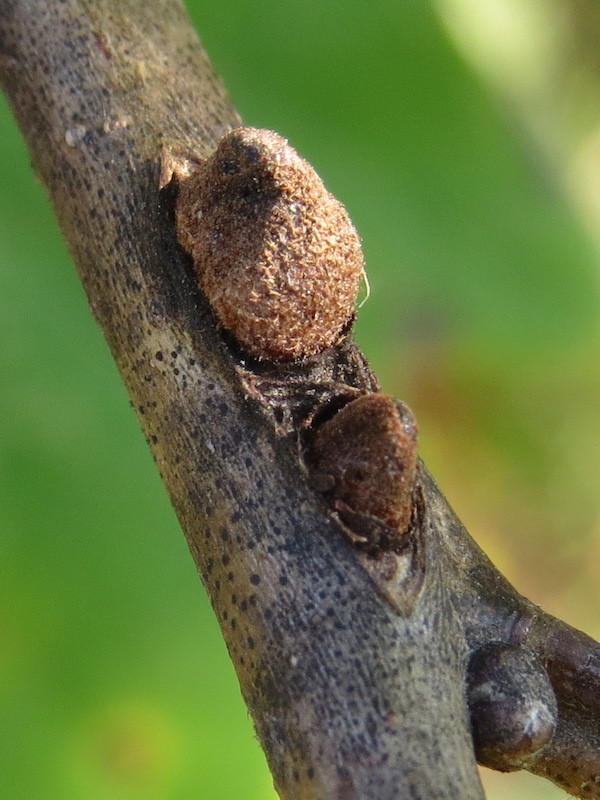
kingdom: Animalia
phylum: Arthropoda
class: Insecta
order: Hymenoptera
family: Cynipidae
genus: Disholcaspis
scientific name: Disholcaspis
